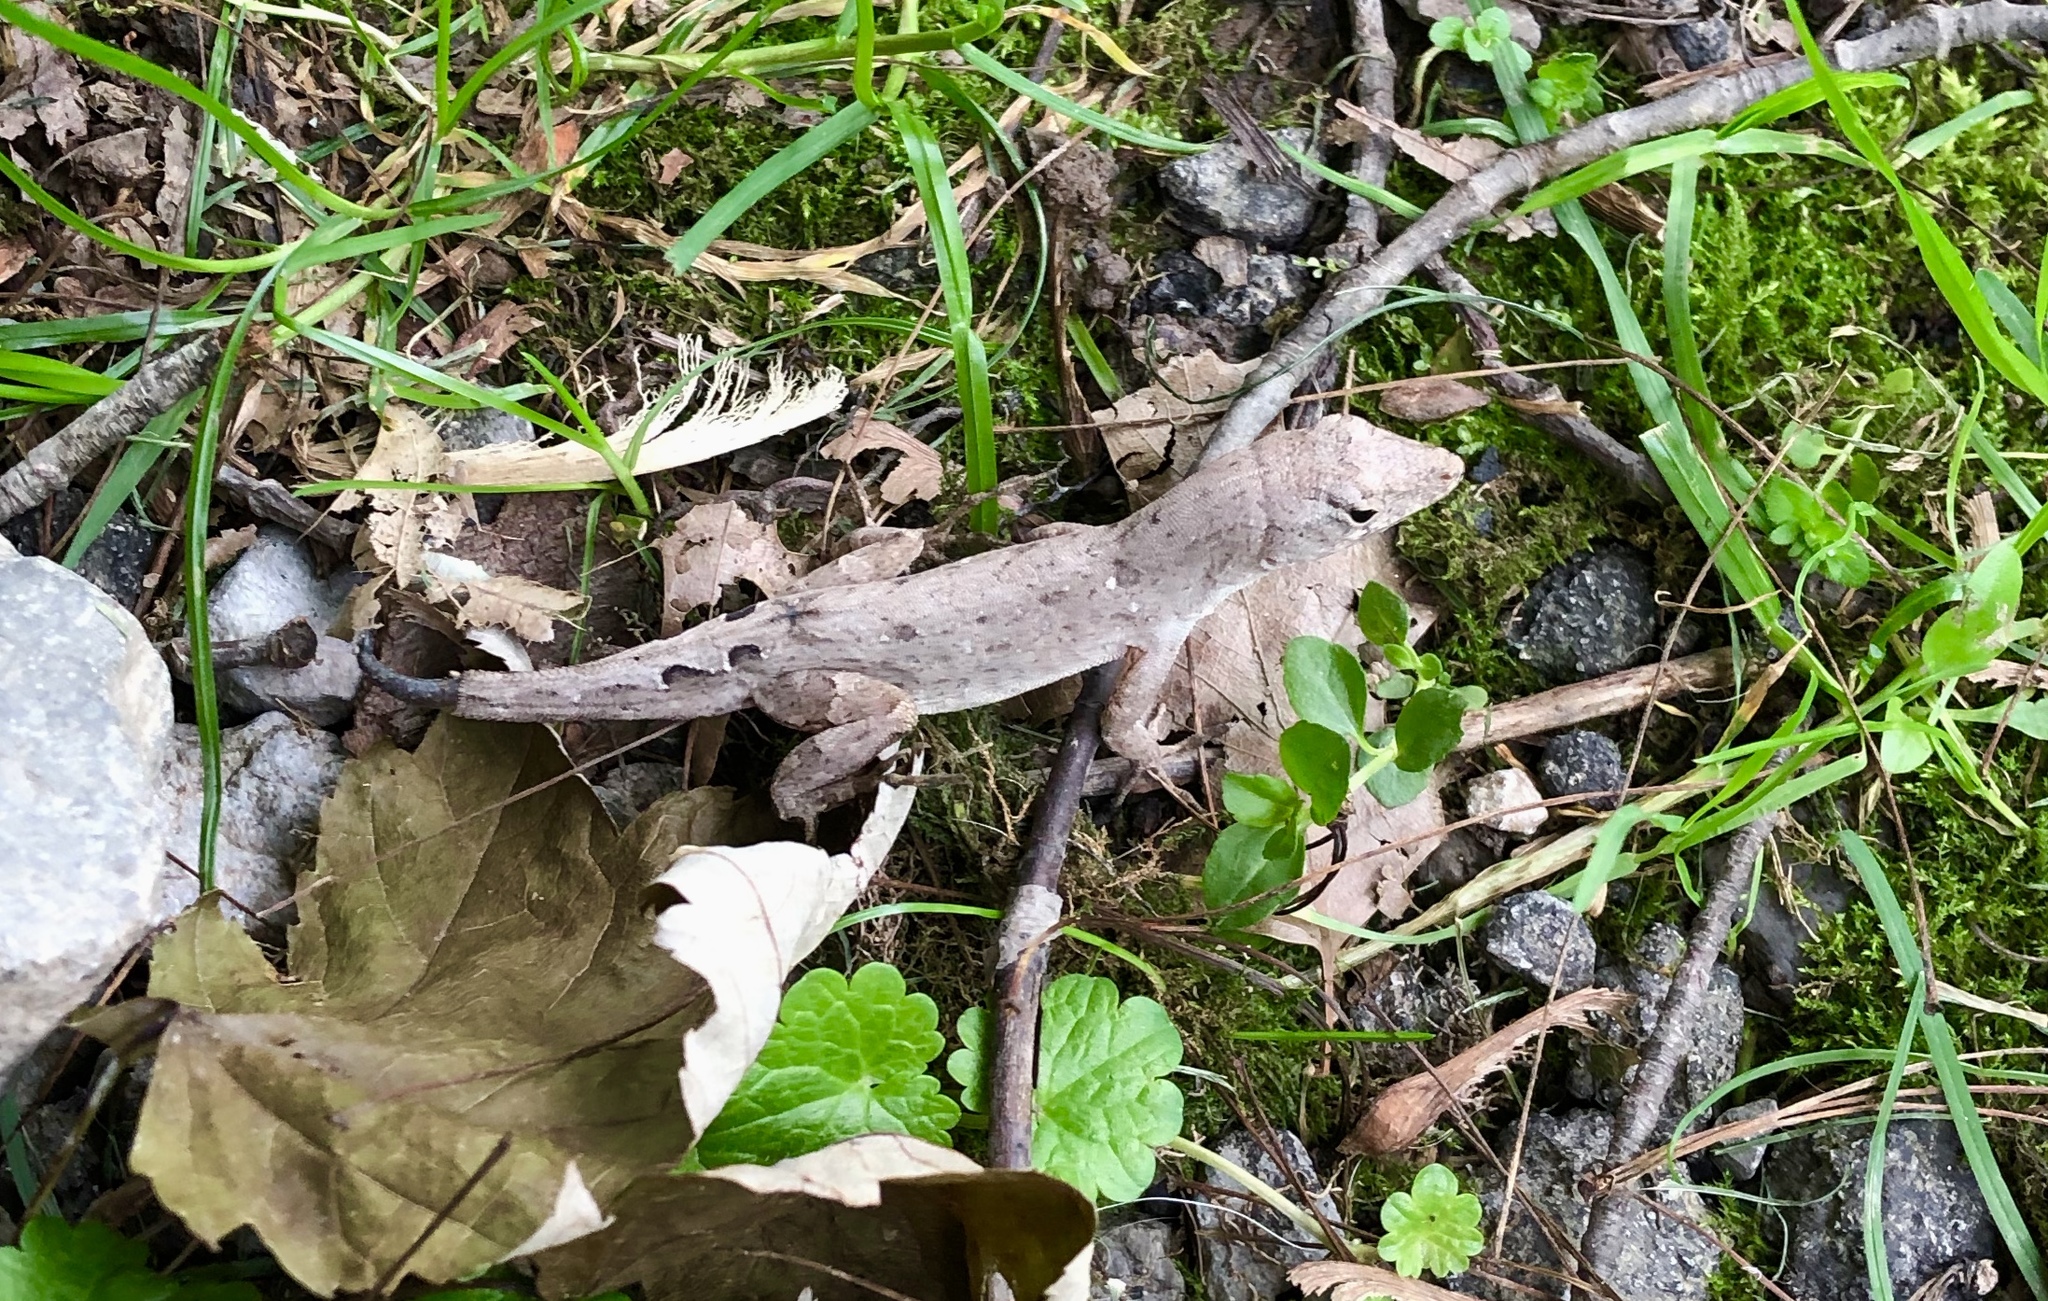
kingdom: Animalia
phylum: Chordata
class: Squamata
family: Dactyloidae
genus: Anolis
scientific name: Anolis sagrei
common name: Brown anole
